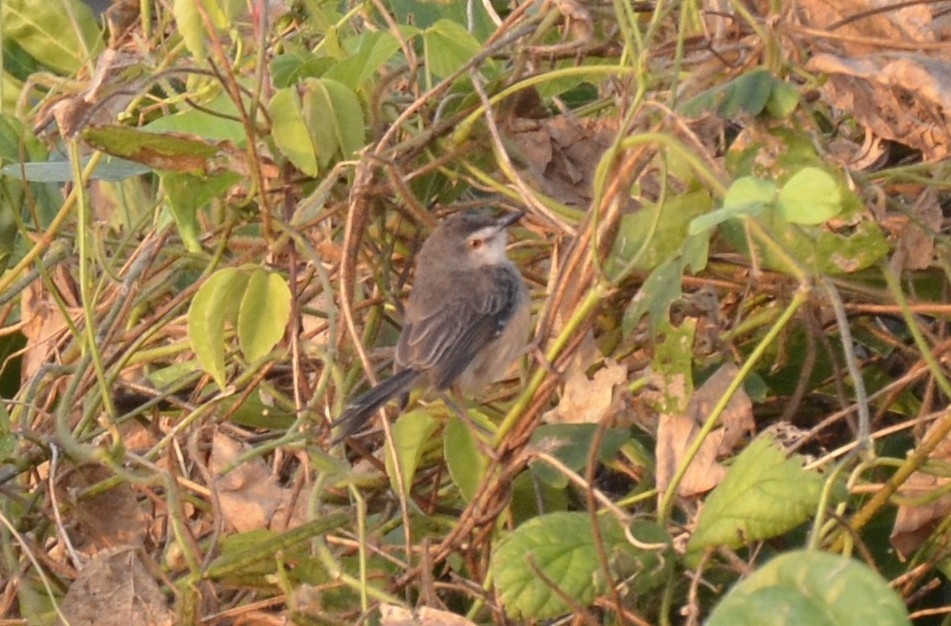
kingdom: Animalia
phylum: Chordata
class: Aves
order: Passeriformes
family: Cisticolidae
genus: Prinia
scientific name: Prinia inornata
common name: Plain prinia
